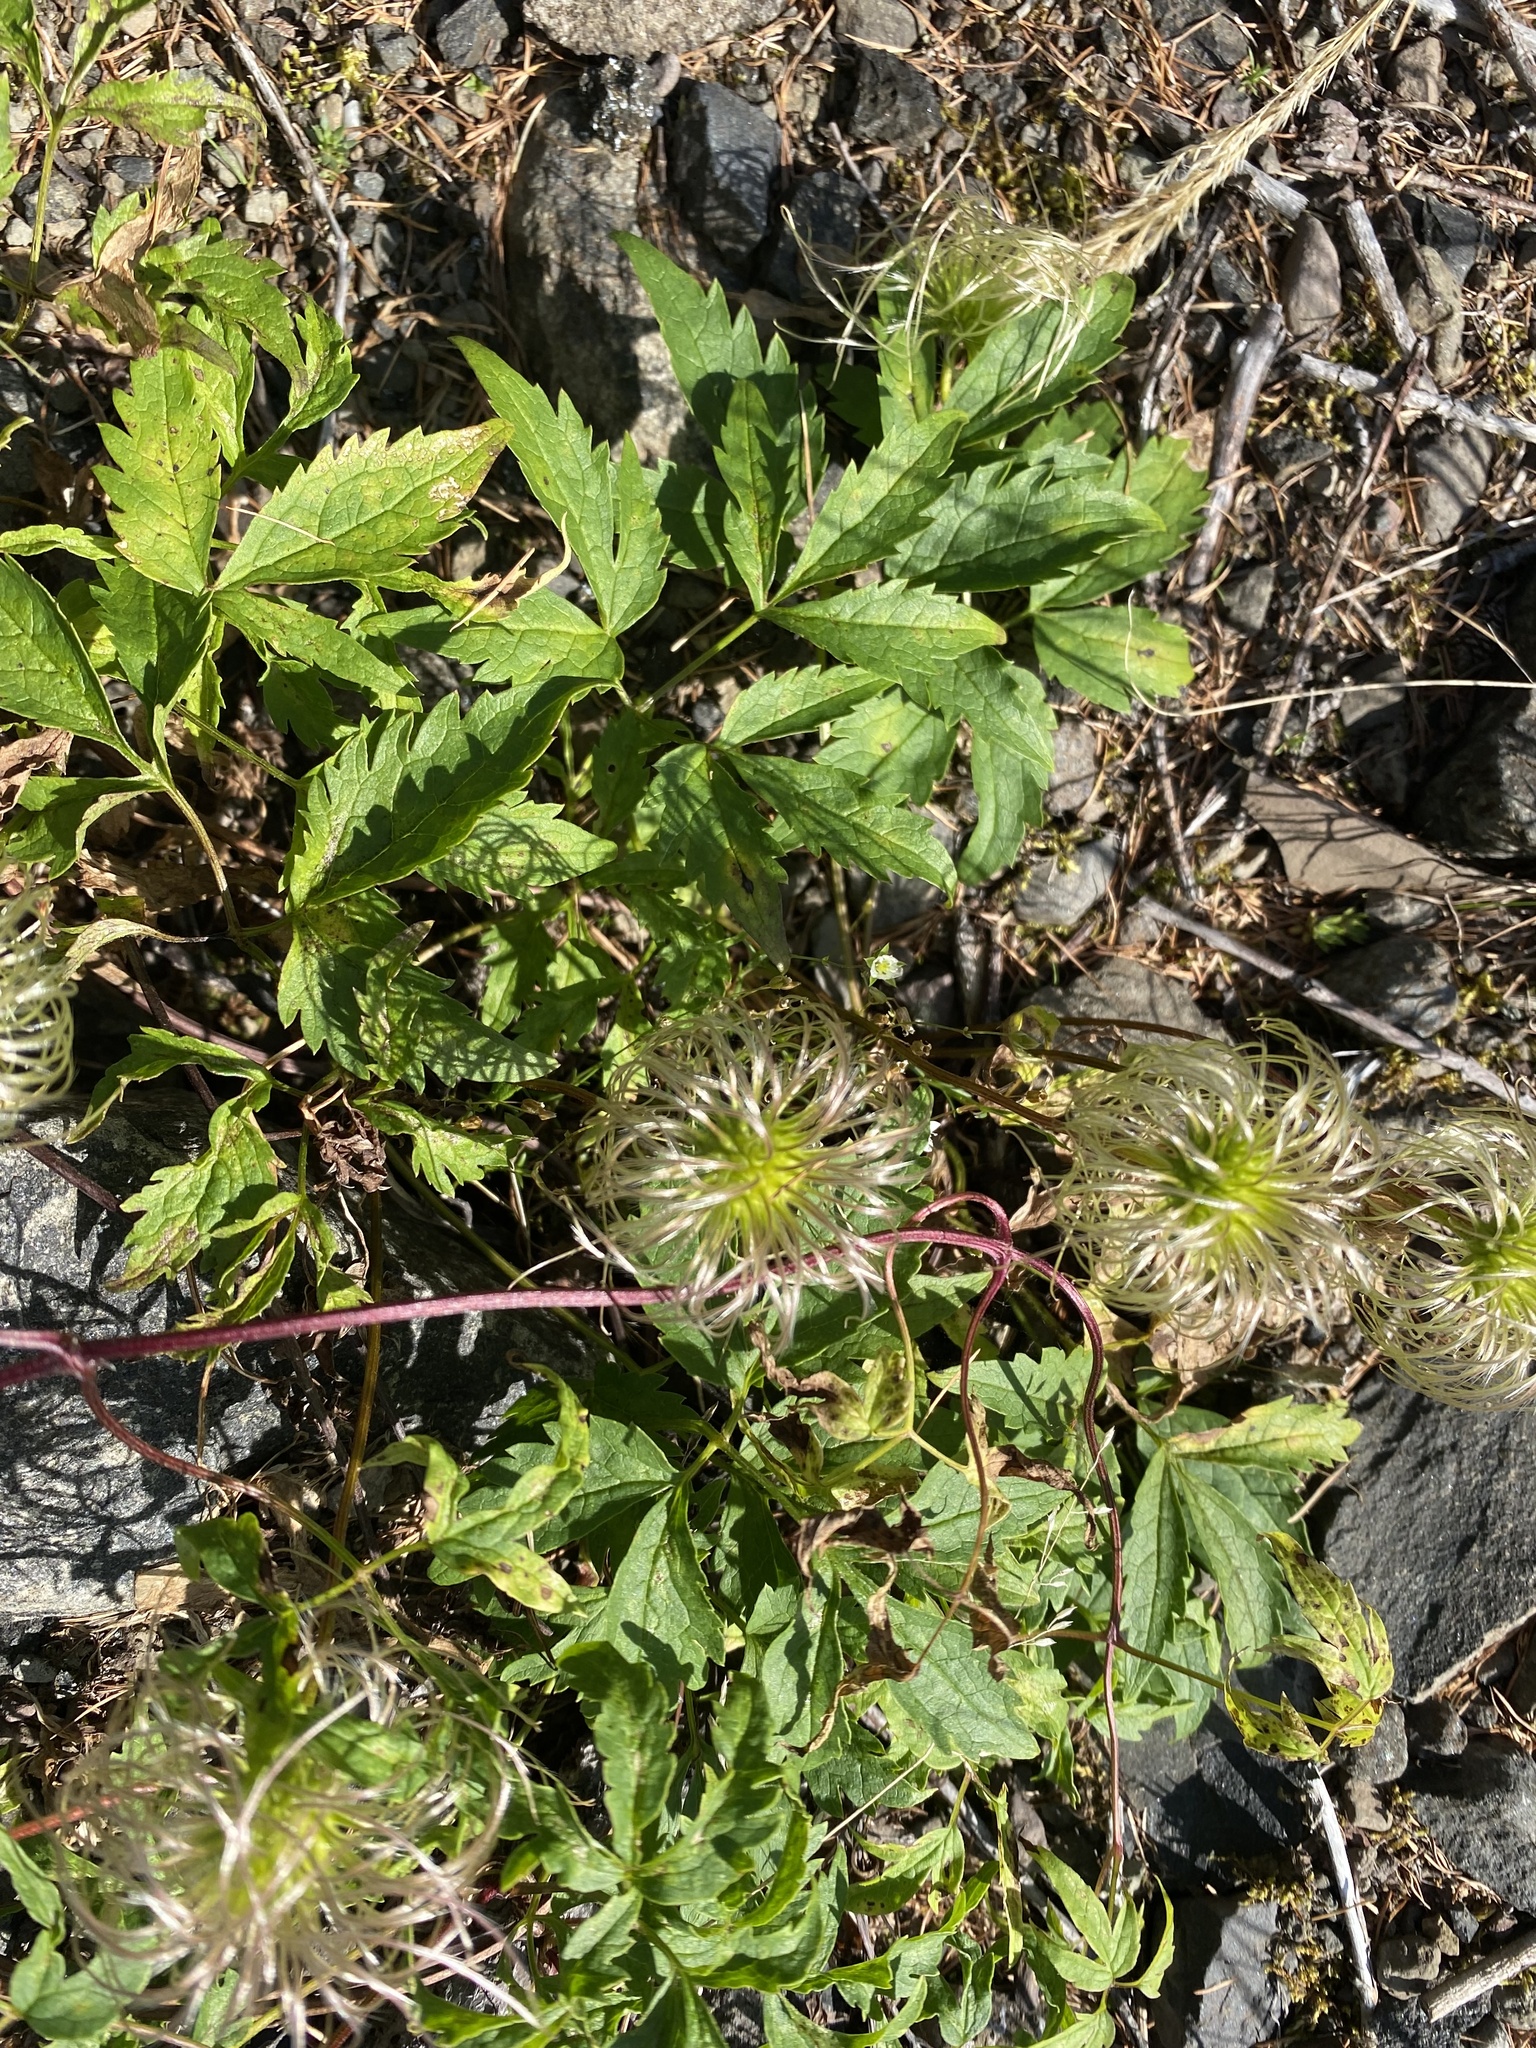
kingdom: Plantae
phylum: Tracheophyta
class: Magnoliopsida
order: Ranunculales
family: Ranunculaceae
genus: Clematis
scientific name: Clematis sibirica
